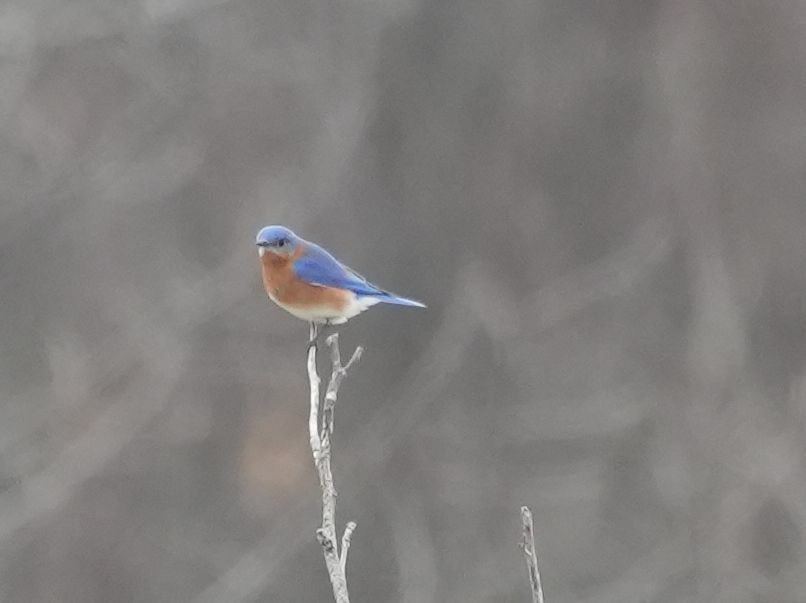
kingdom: Animalia
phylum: Chordata
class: Aves
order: Passeriformes
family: Turdidae
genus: Sialia
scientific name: Sialia sialis
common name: Eastern bluebird
